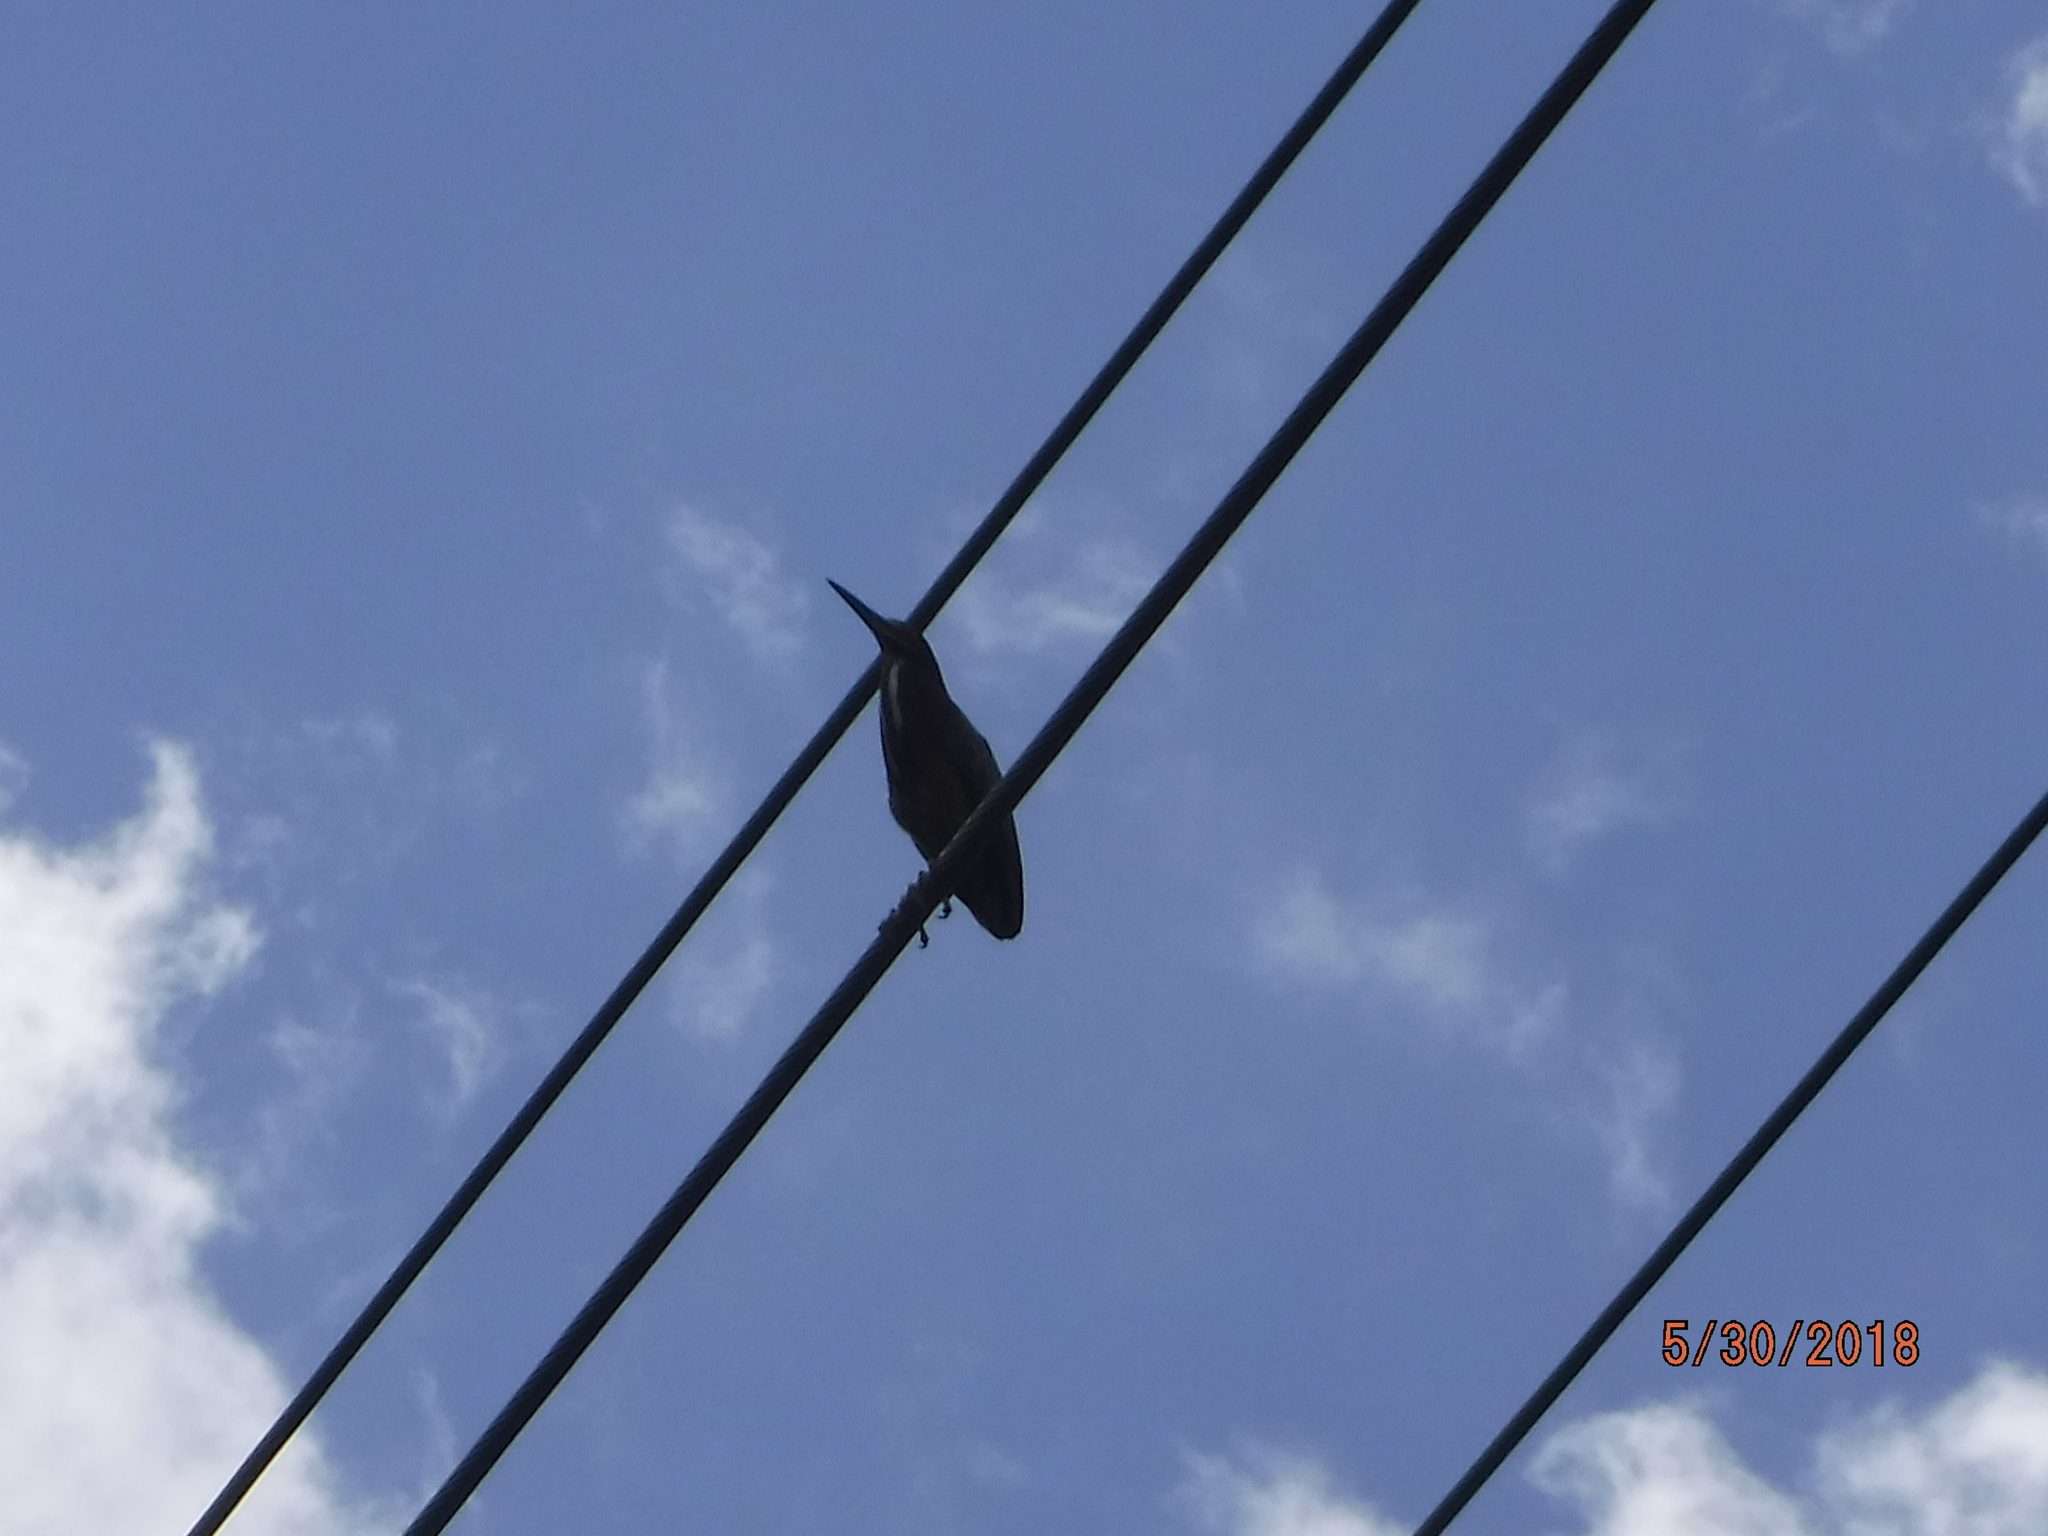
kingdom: Animalia
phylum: Chordata
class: Aves
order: Pelecaniformes
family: Ardeidae
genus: Butorides
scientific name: Butorides virescens
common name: Green heron
